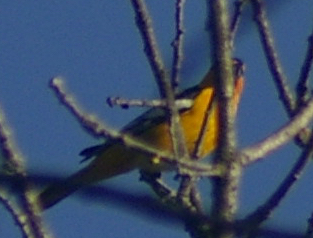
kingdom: Animalia
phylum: Chordata
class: Aves
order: Passeriformes
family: Icteridae
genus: Icterus
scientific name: Icterus bullockii
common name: Bullock's oriole
